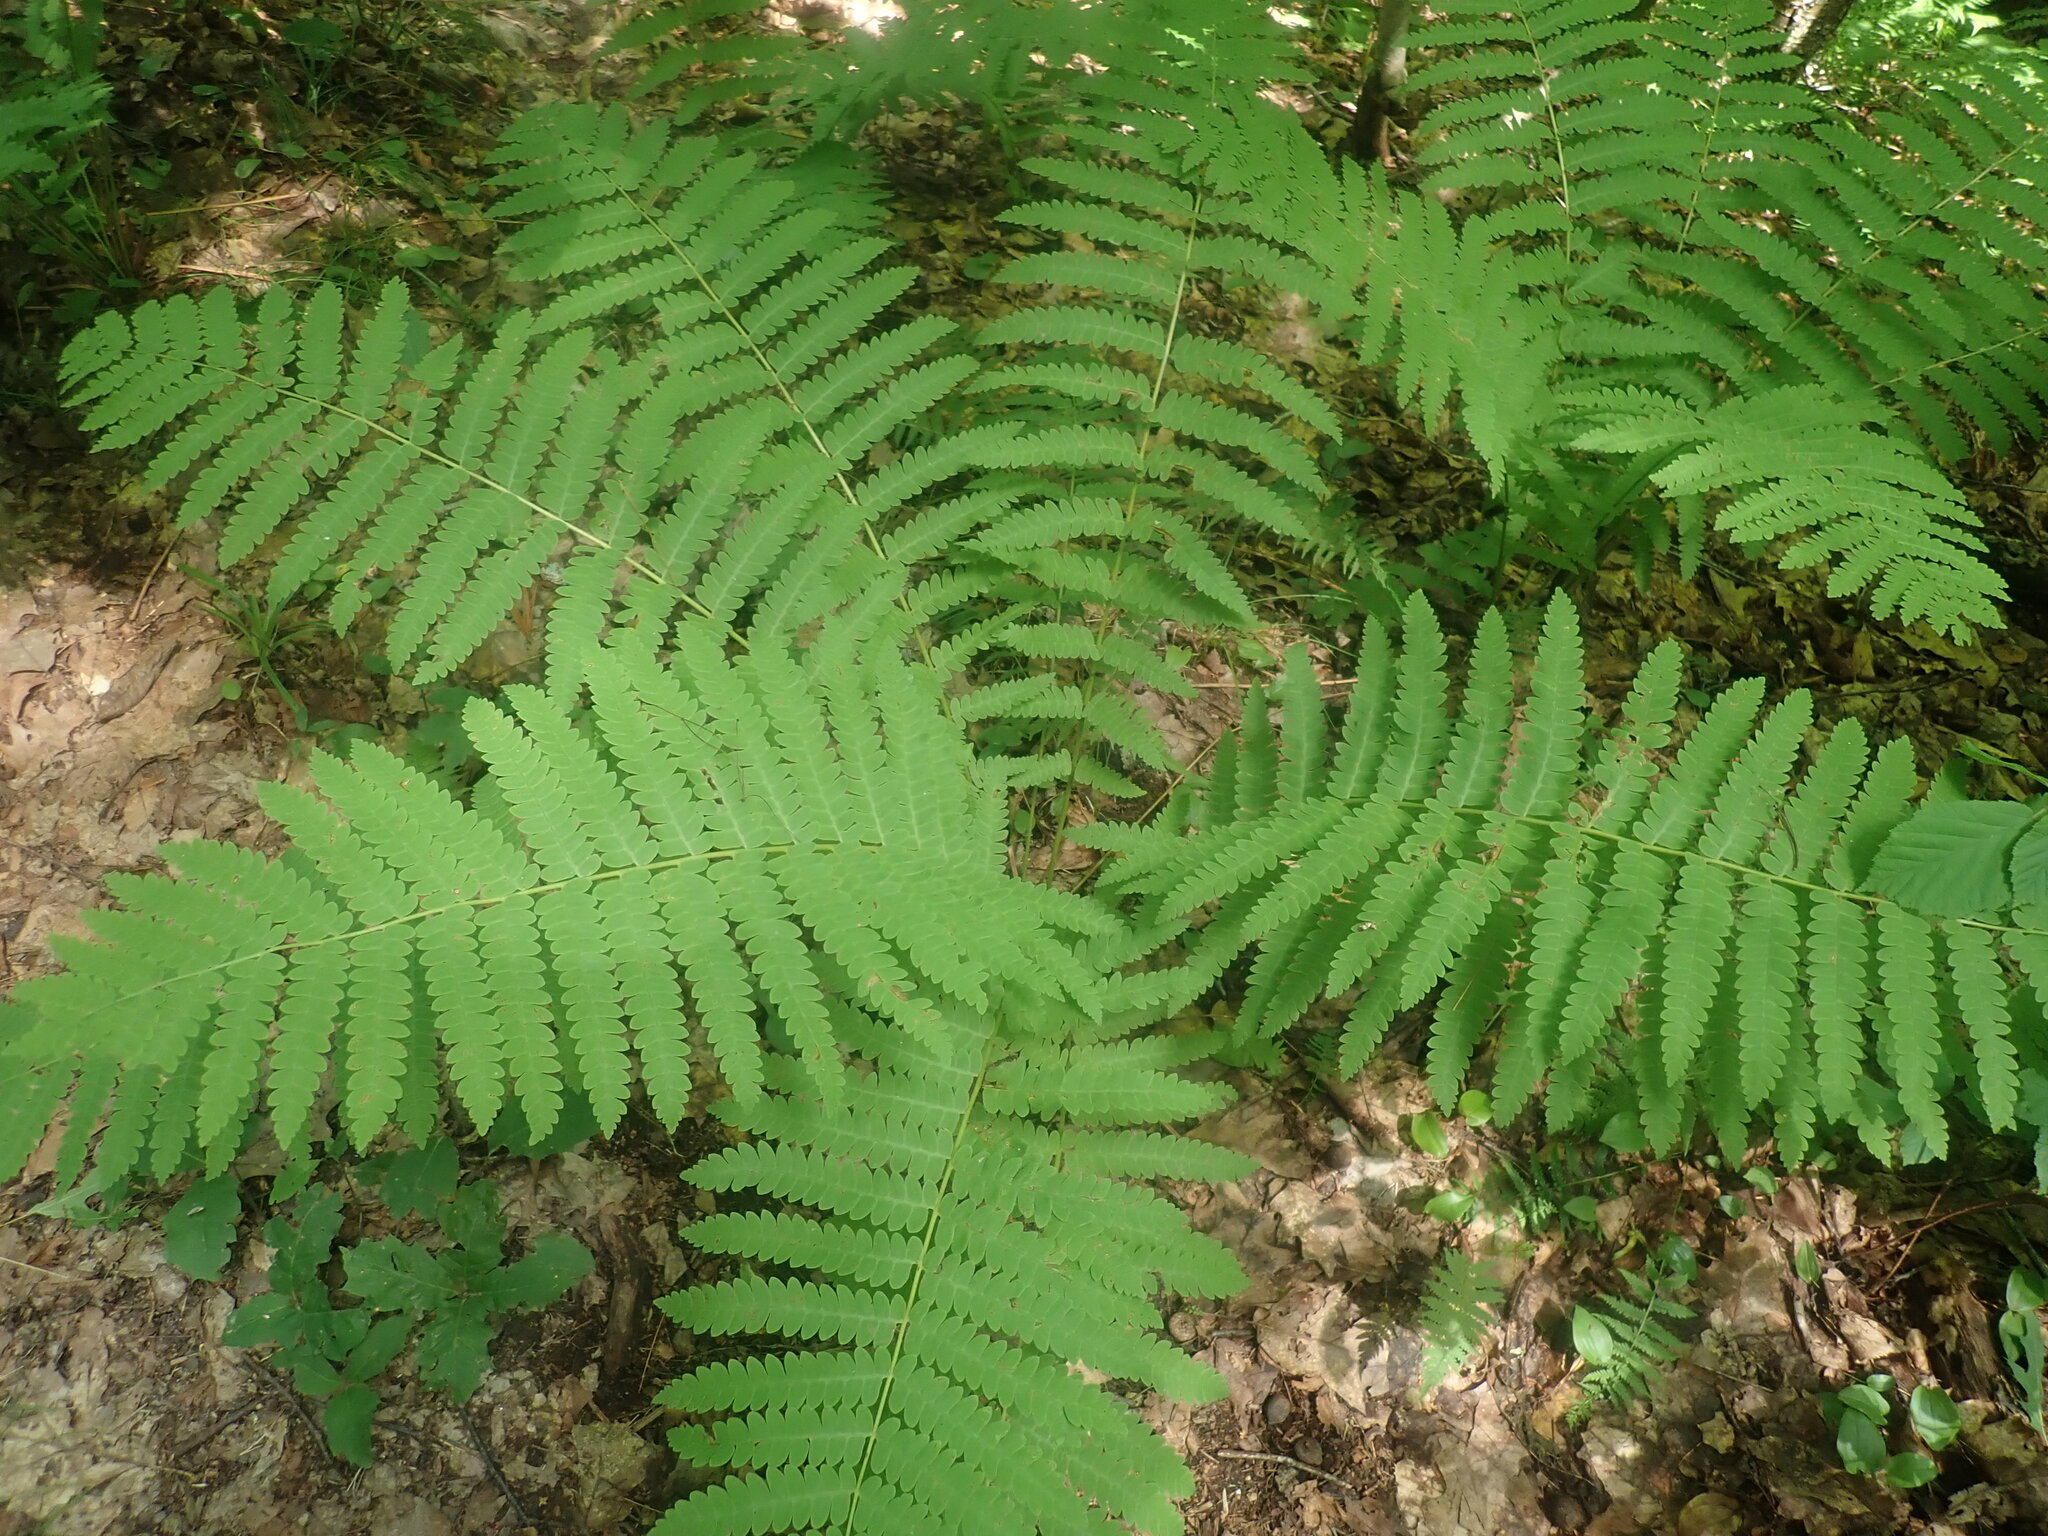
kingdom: Plantae
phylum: Tracheophyta
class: Polypodiopsida
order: Osmundales
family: Osmundaceae
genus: Claytosmunda
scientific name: Claytosmunda claytoniana
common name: Clayton's fern
